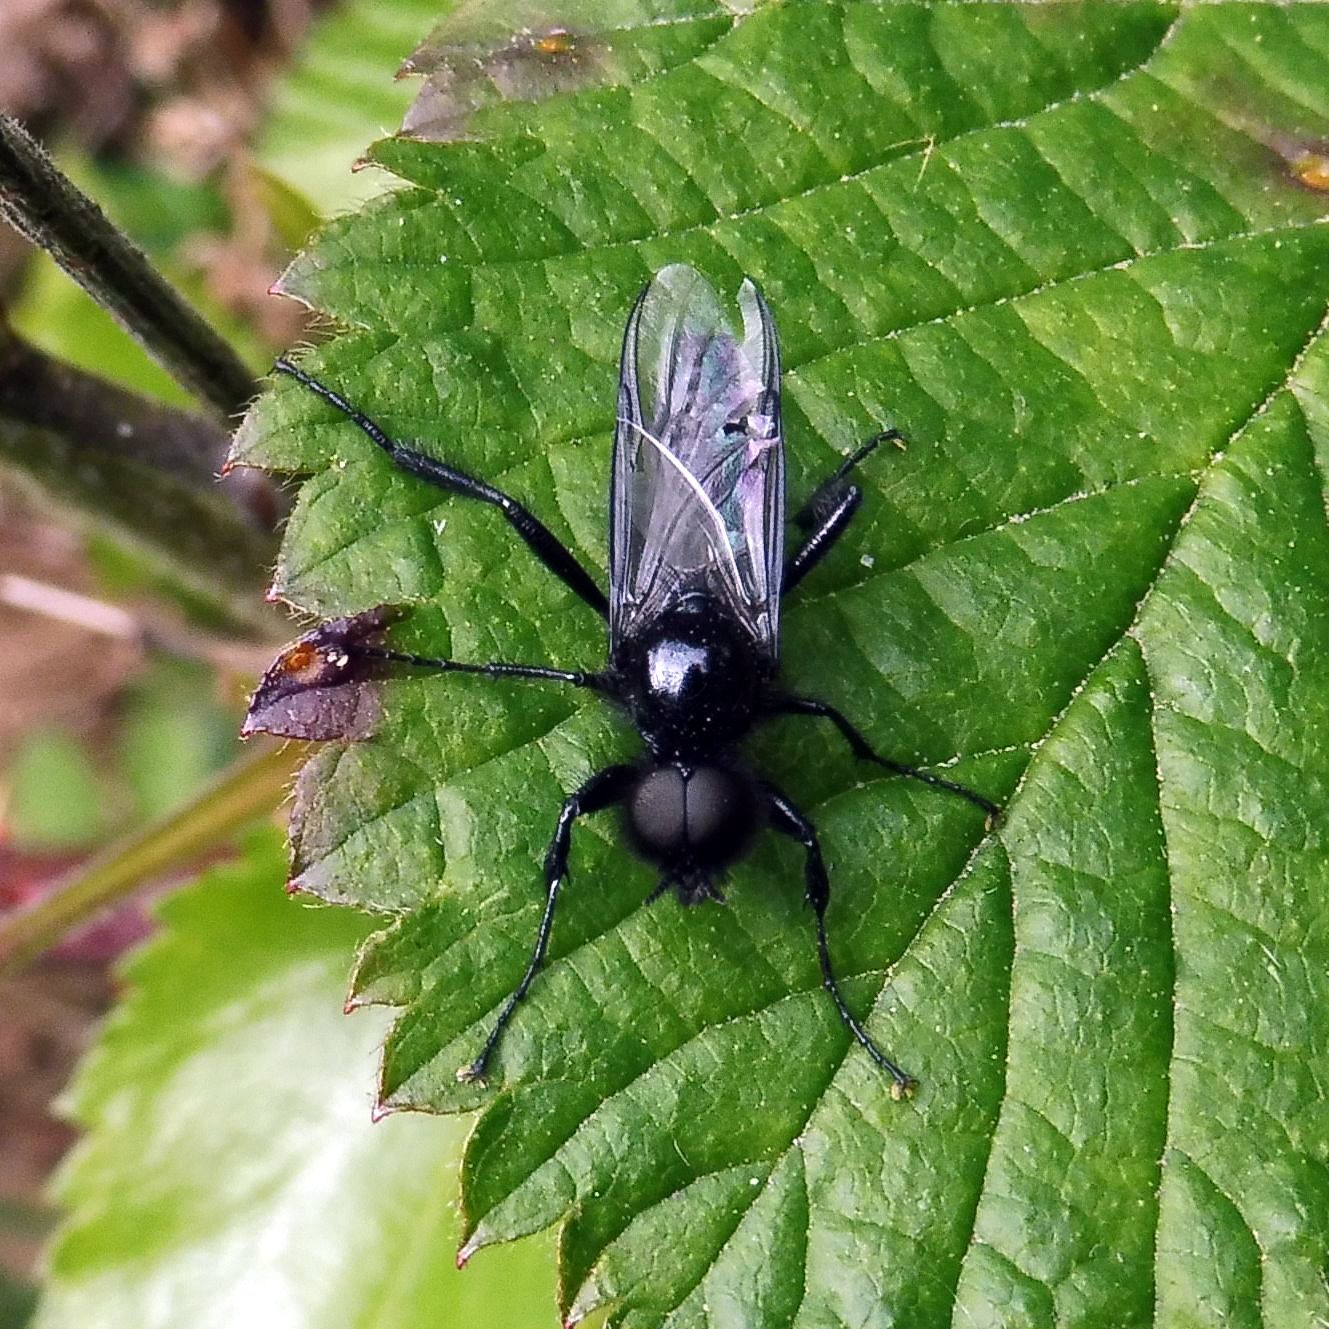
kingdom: Animalia
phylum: Arthropoda
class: Insecta
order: Diptera
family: Bibionidae
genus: Bibio
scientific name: Bibio marci
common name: St marks fly
